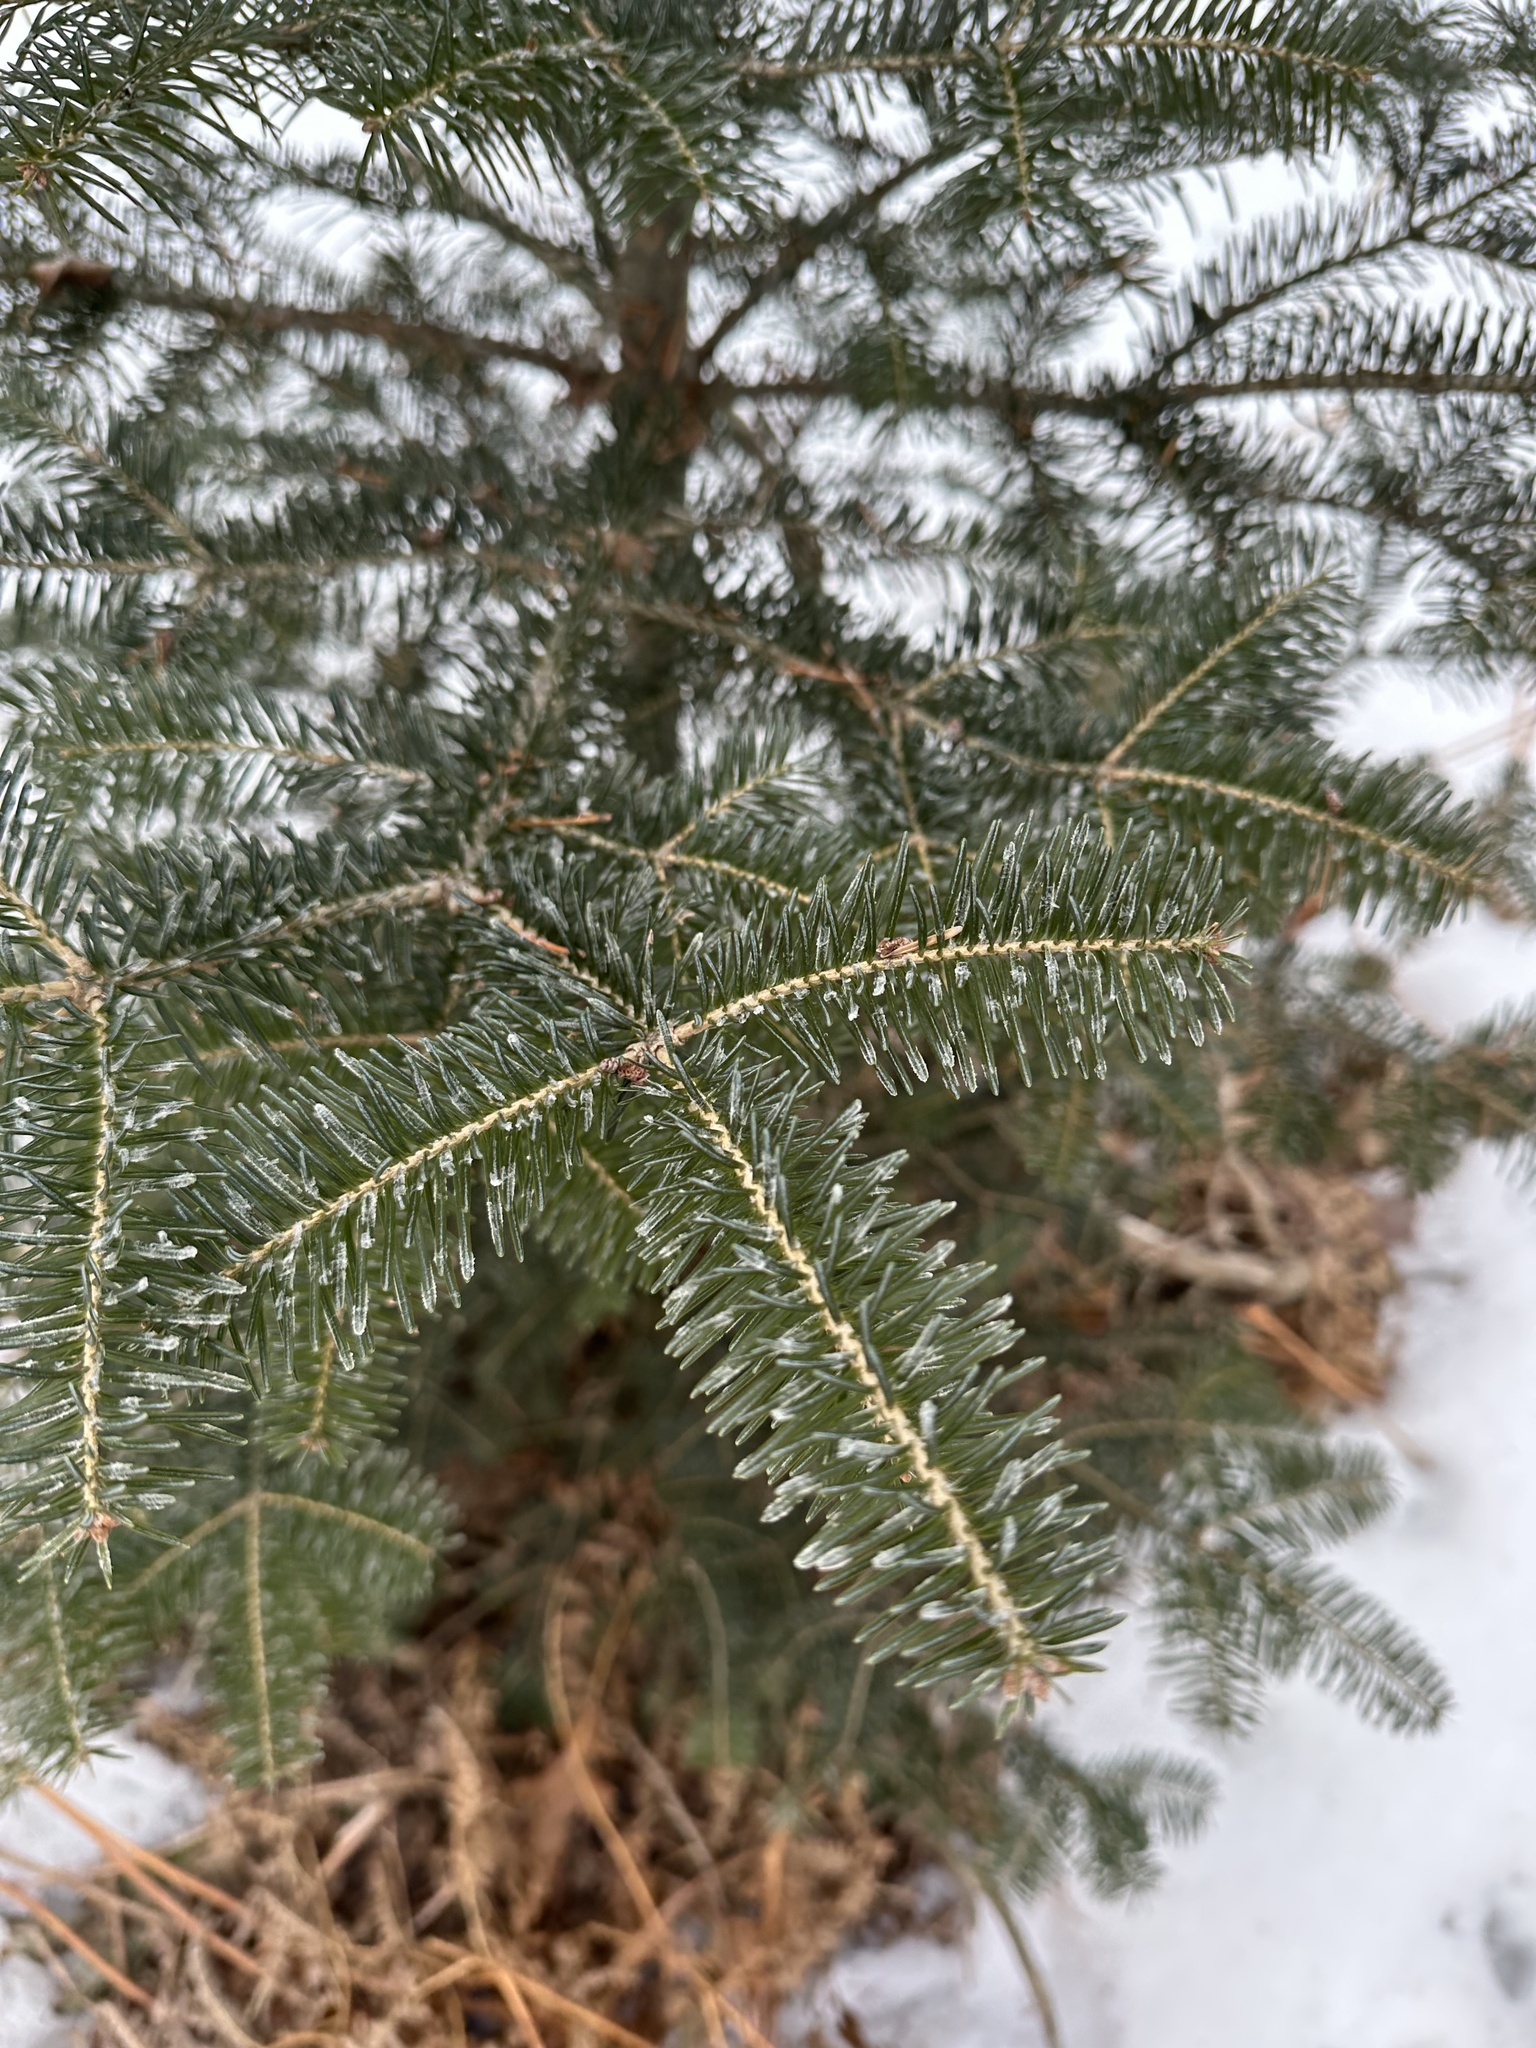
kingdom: Plantae
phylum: Tracheophyta
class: Pinopsida
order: Pinales
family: Pinaceae
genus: Abies
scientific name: Abies balsamea
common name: Balsam fir
